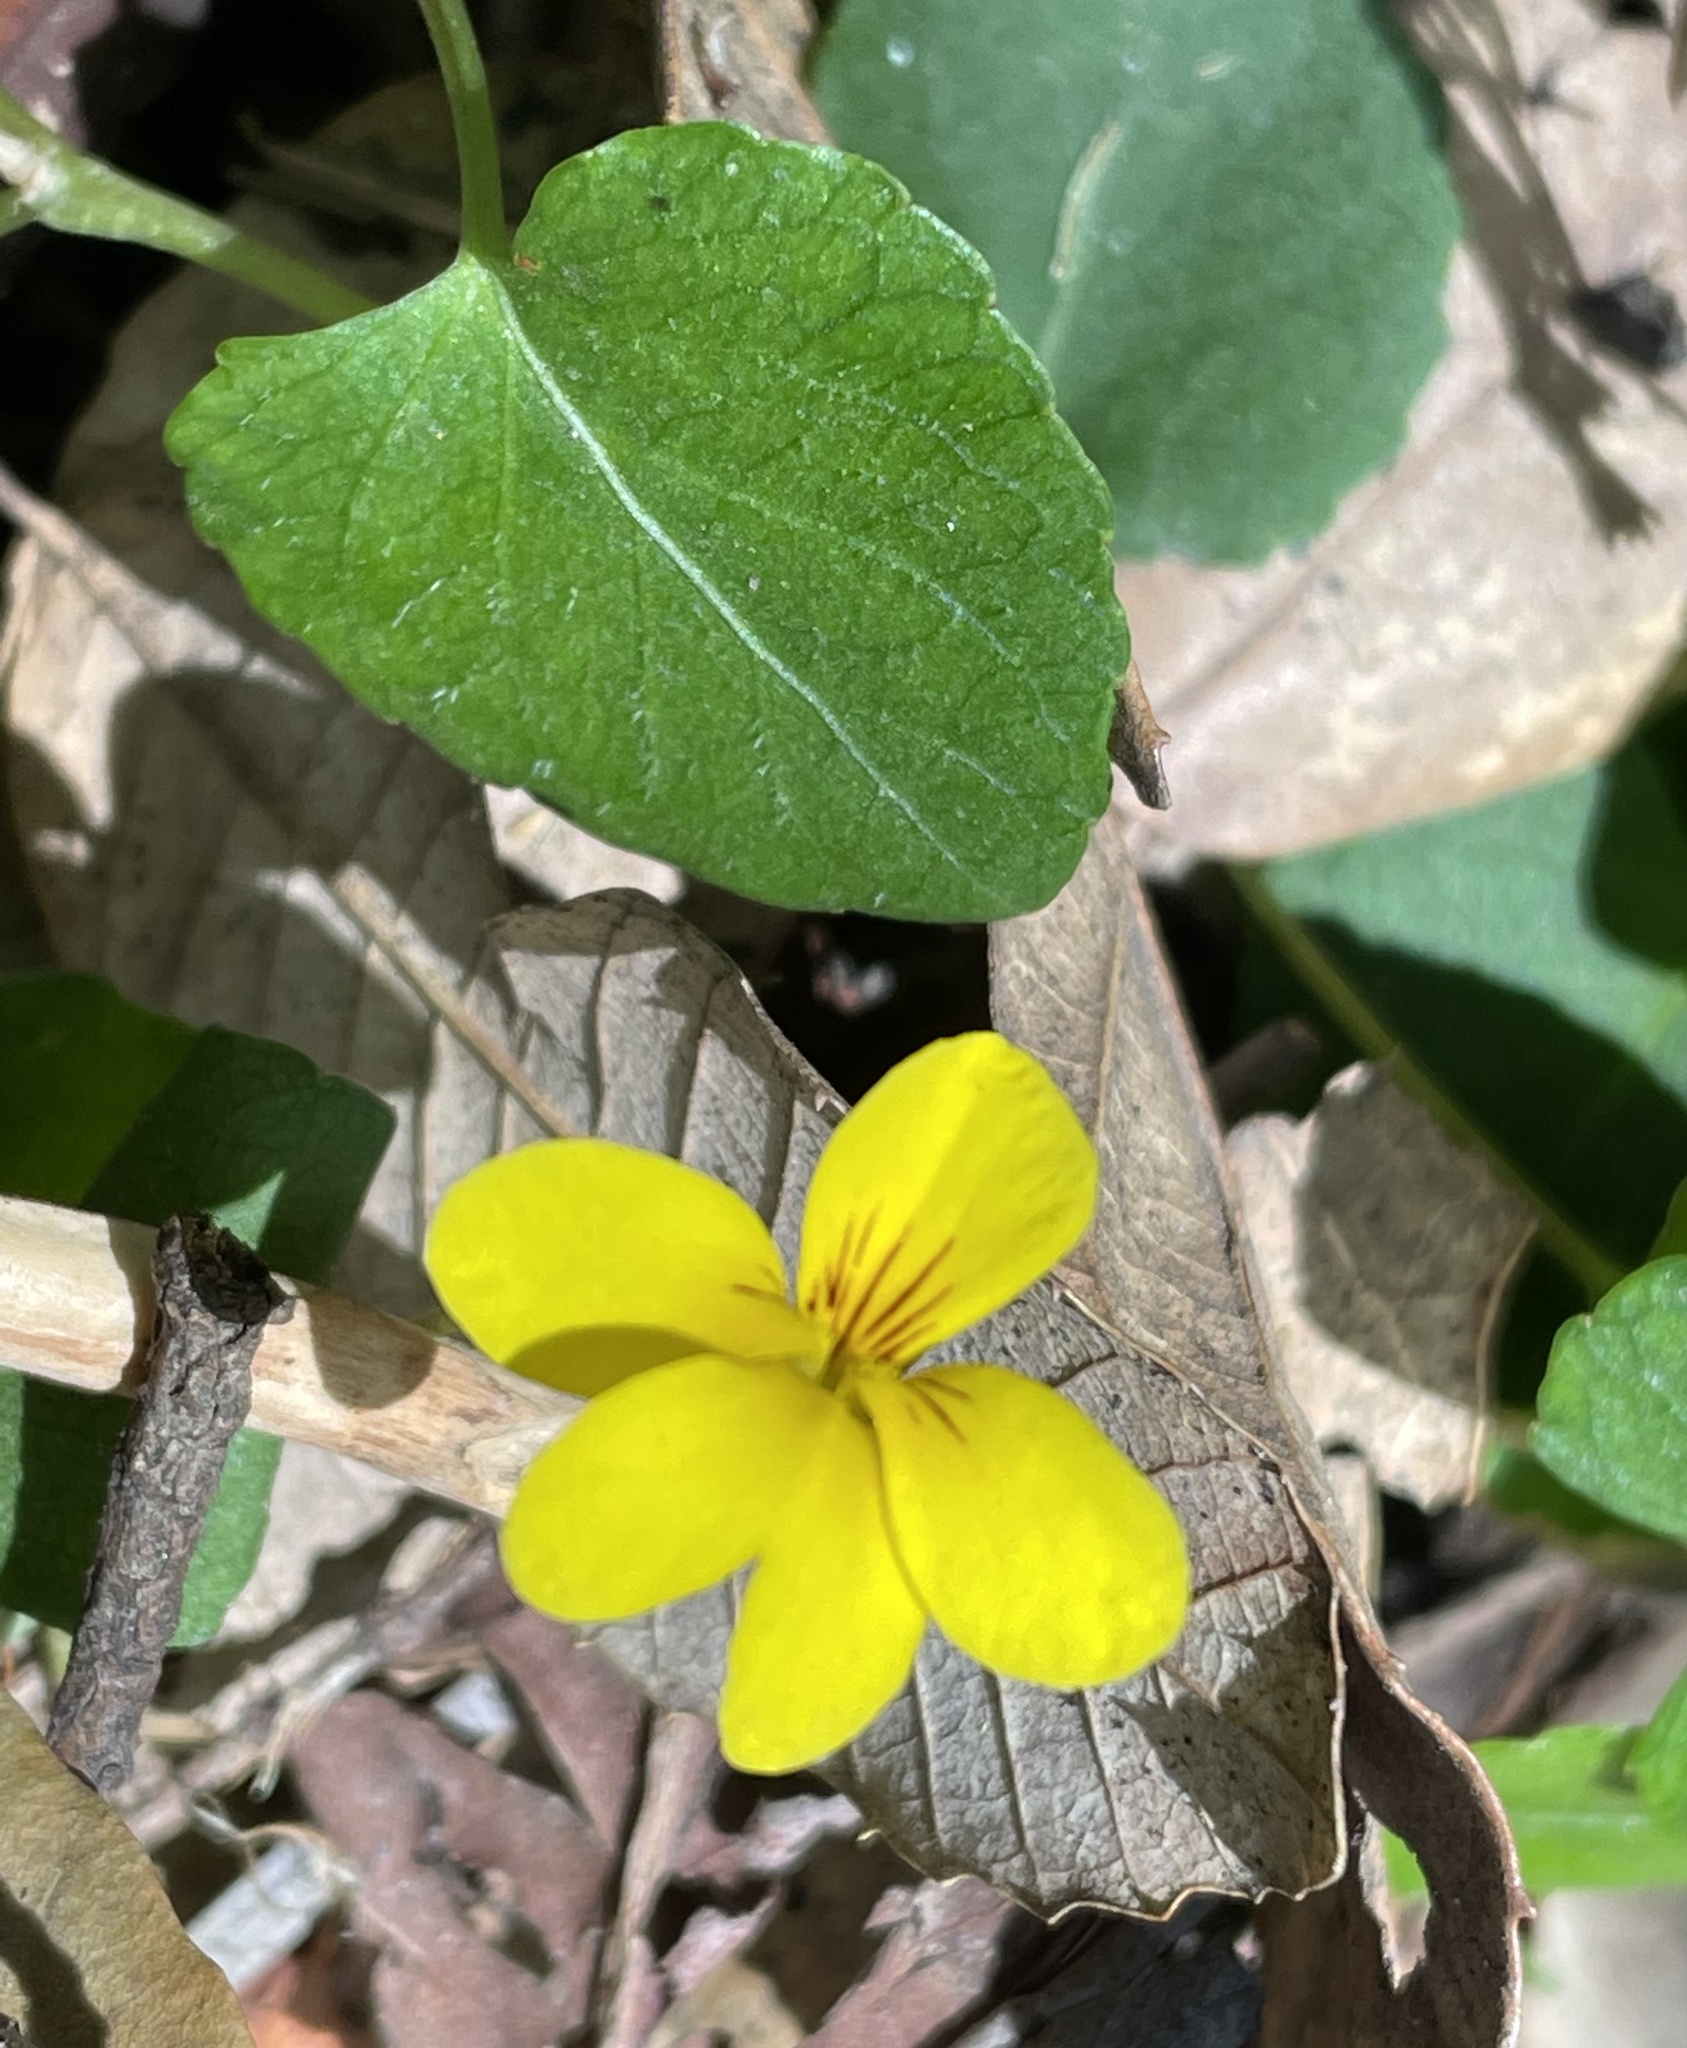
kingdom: Plantae
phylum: Tracheophyta
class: Magnoliopsida
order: Malpighiales
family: Violaceae
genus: Viola
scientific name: Viola sempervirens
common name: Evergreen violet
